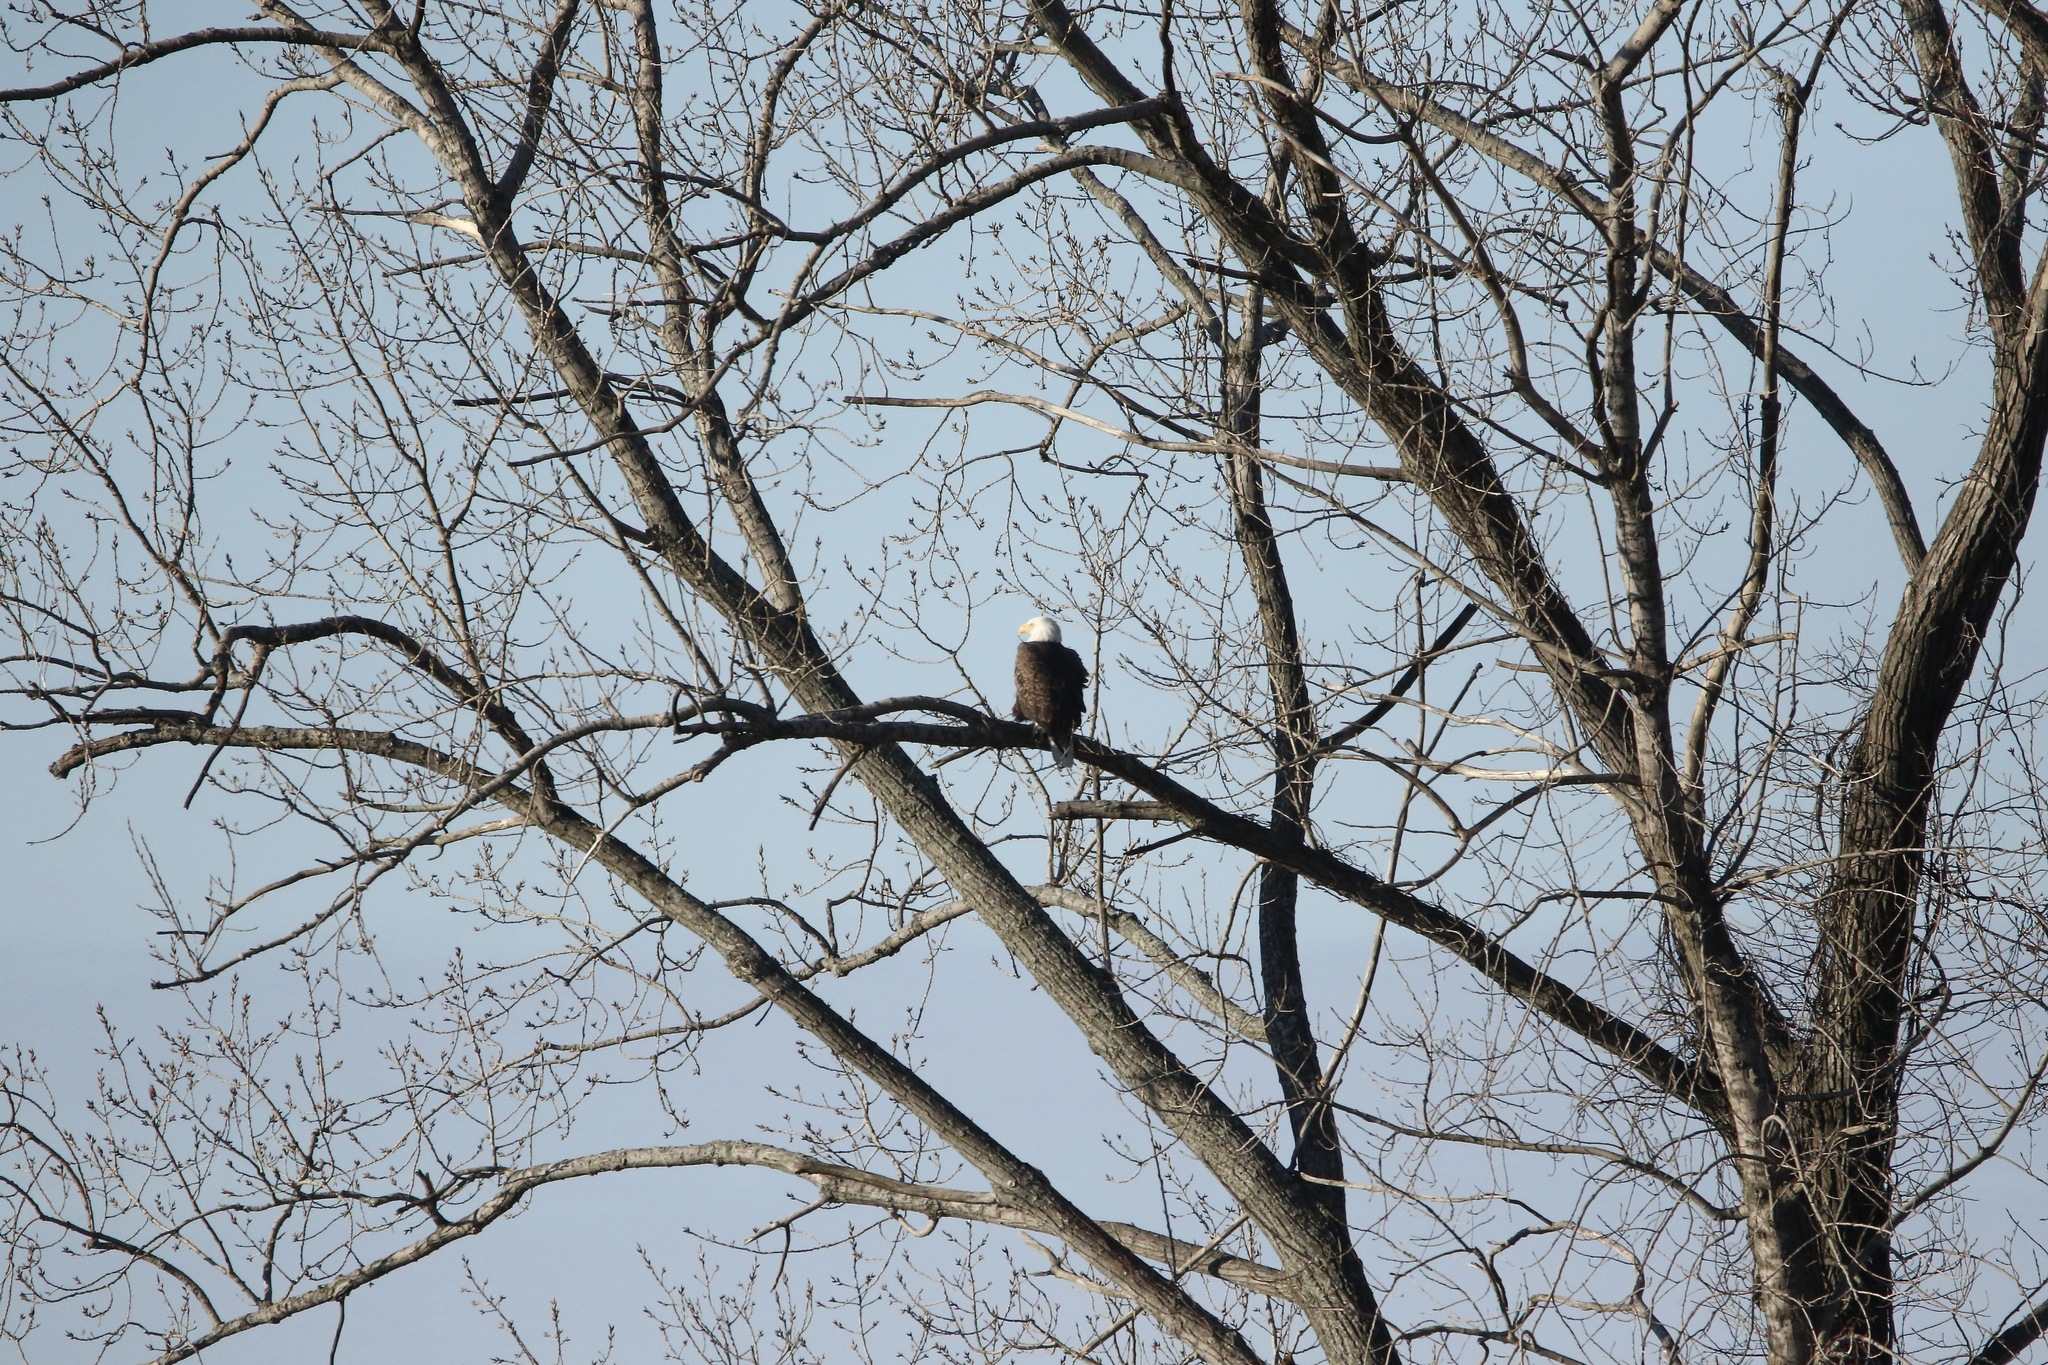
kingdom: Animalia
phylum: Chordata
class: Aves
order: Accipitriformes
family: Accipitridae
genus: Haliaeetus
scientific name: Haliaeetus leucocephalus
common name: Bald eagle
